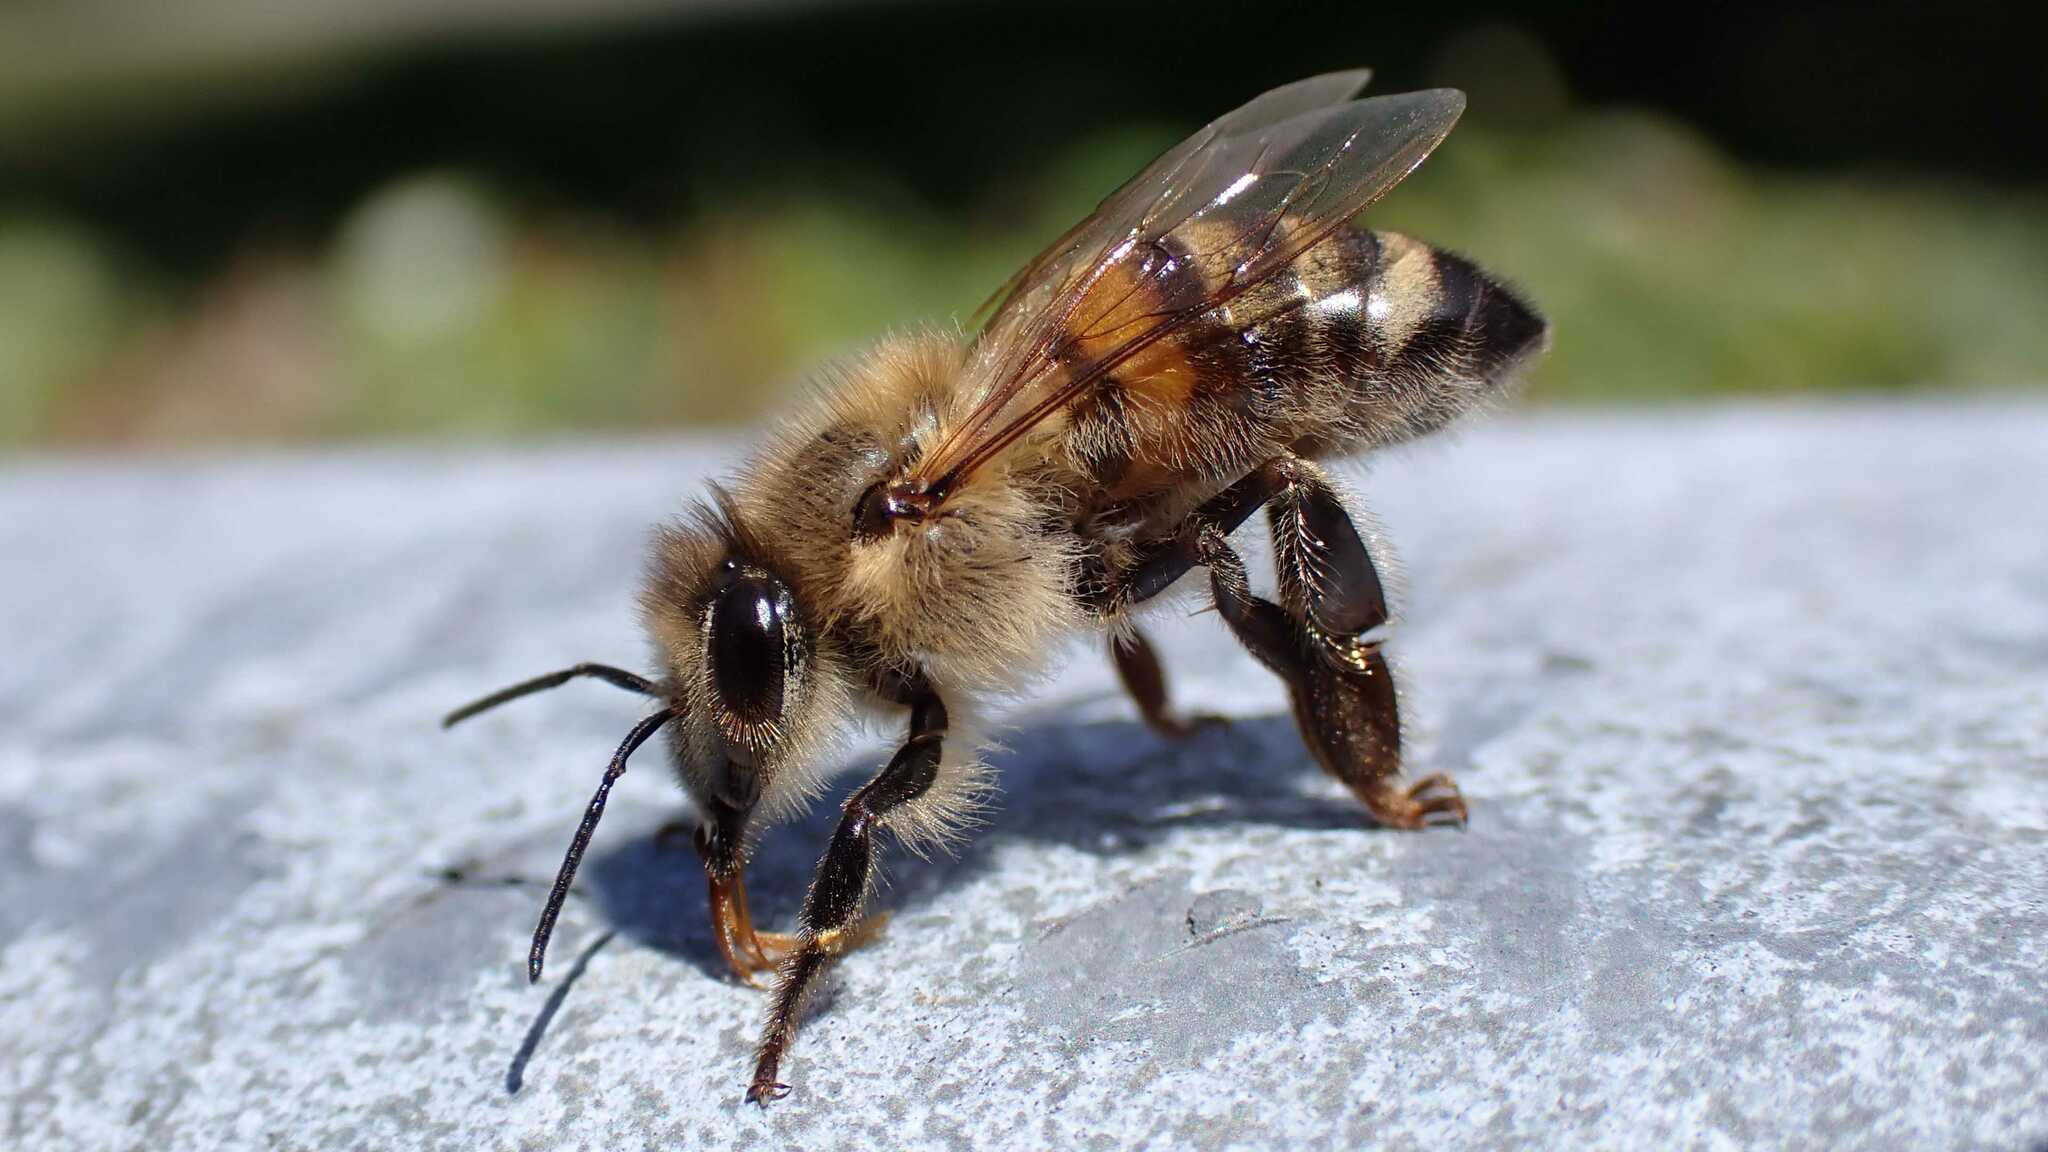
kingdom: Animalia
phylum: Arthropoda
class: Insecta
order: Hymenoptera
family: Apidae
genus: Apis
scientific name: Apis mellifera
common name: Honey bee
